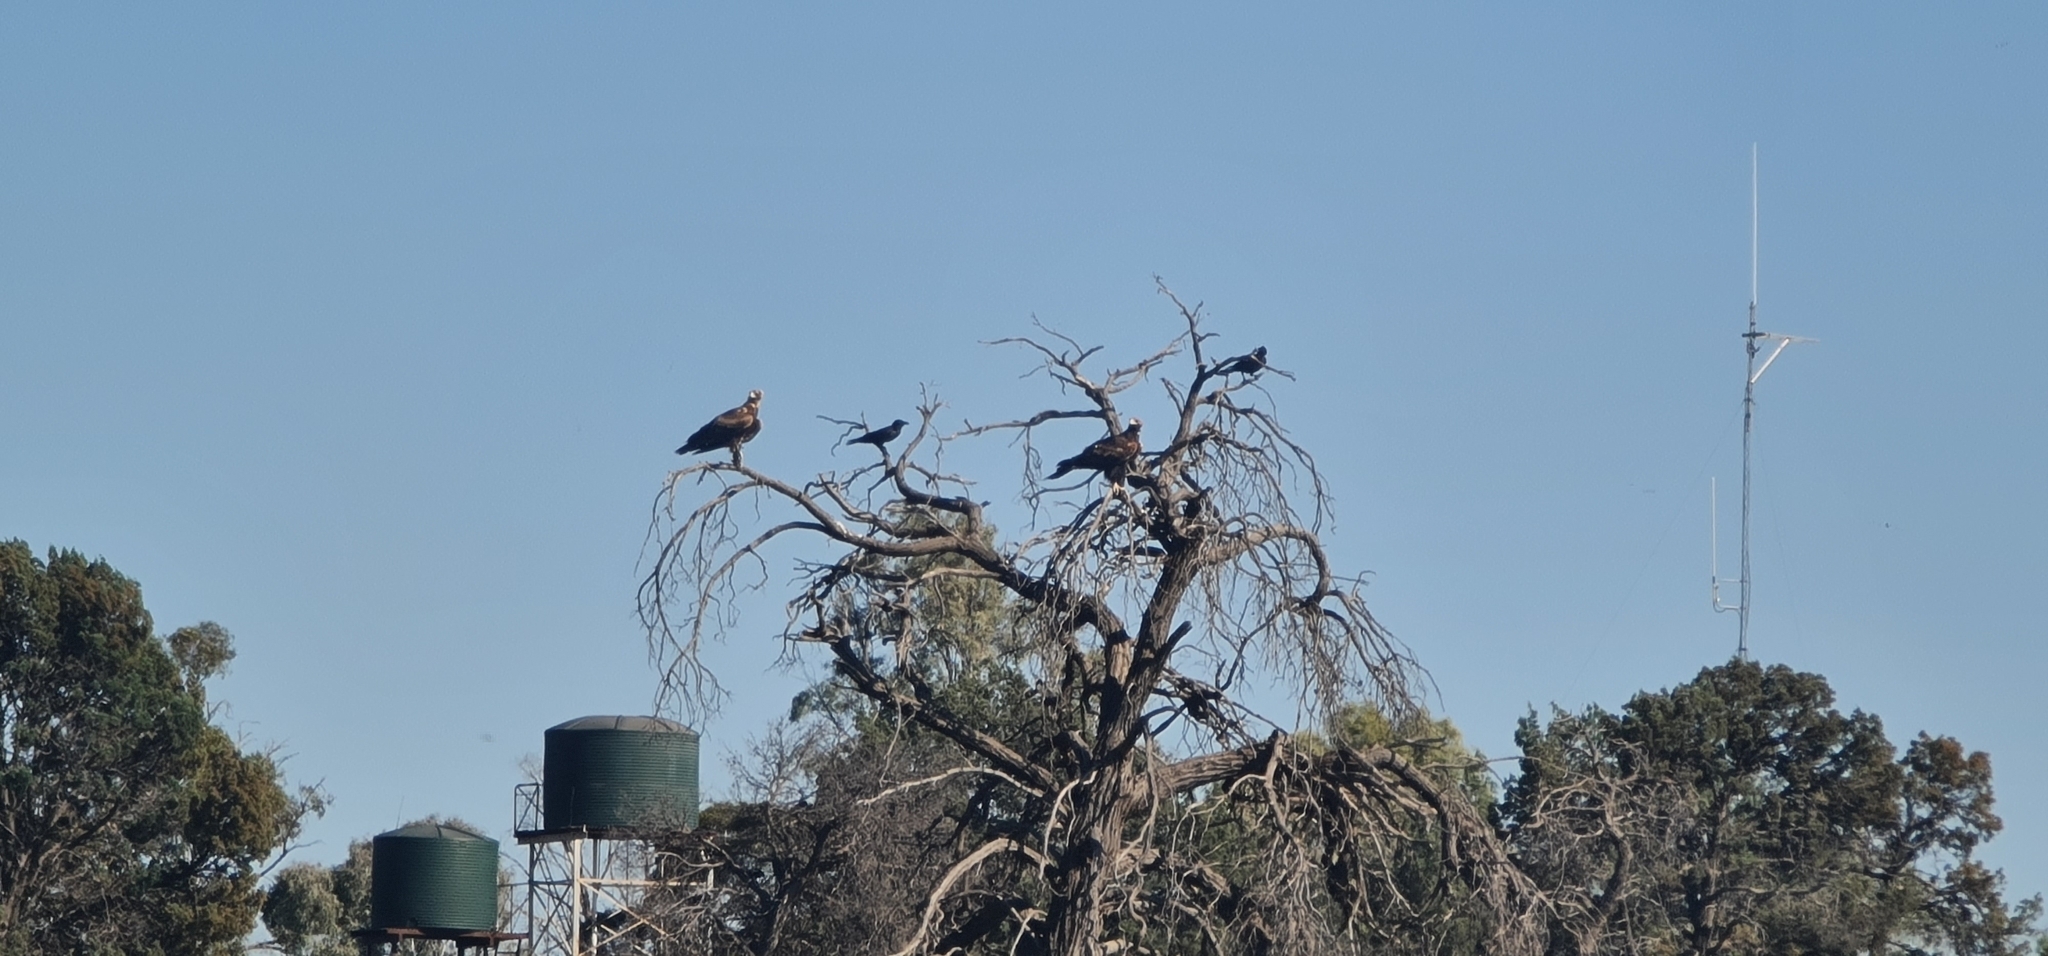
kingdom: Animalia
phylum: Chordata
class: Aves
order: Accipitriformes
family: Accipitridae
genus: Aquila
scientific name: Aquila audax
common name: Wedge-tailed eagle
